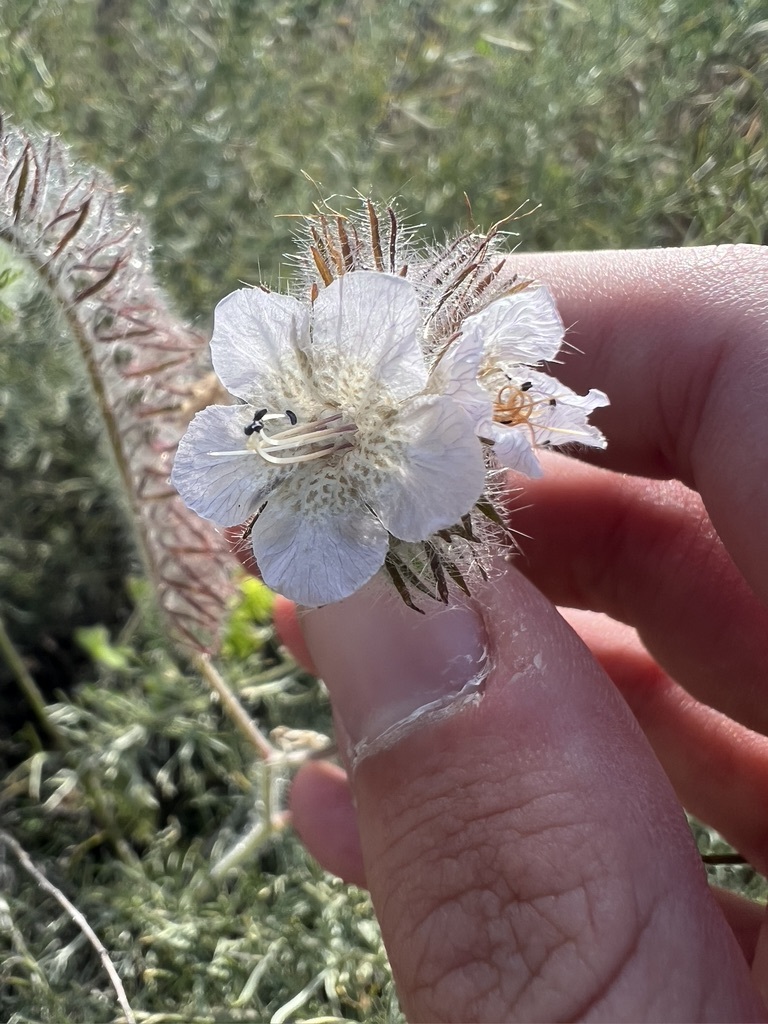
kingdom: Plantae
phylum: Tracheophyta
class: Magnoliopsida
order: Boraginales
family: Hydrophyllaceae
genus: Phacelia
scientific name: Phacelia cicutaria
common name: Caterpillar phacelia
